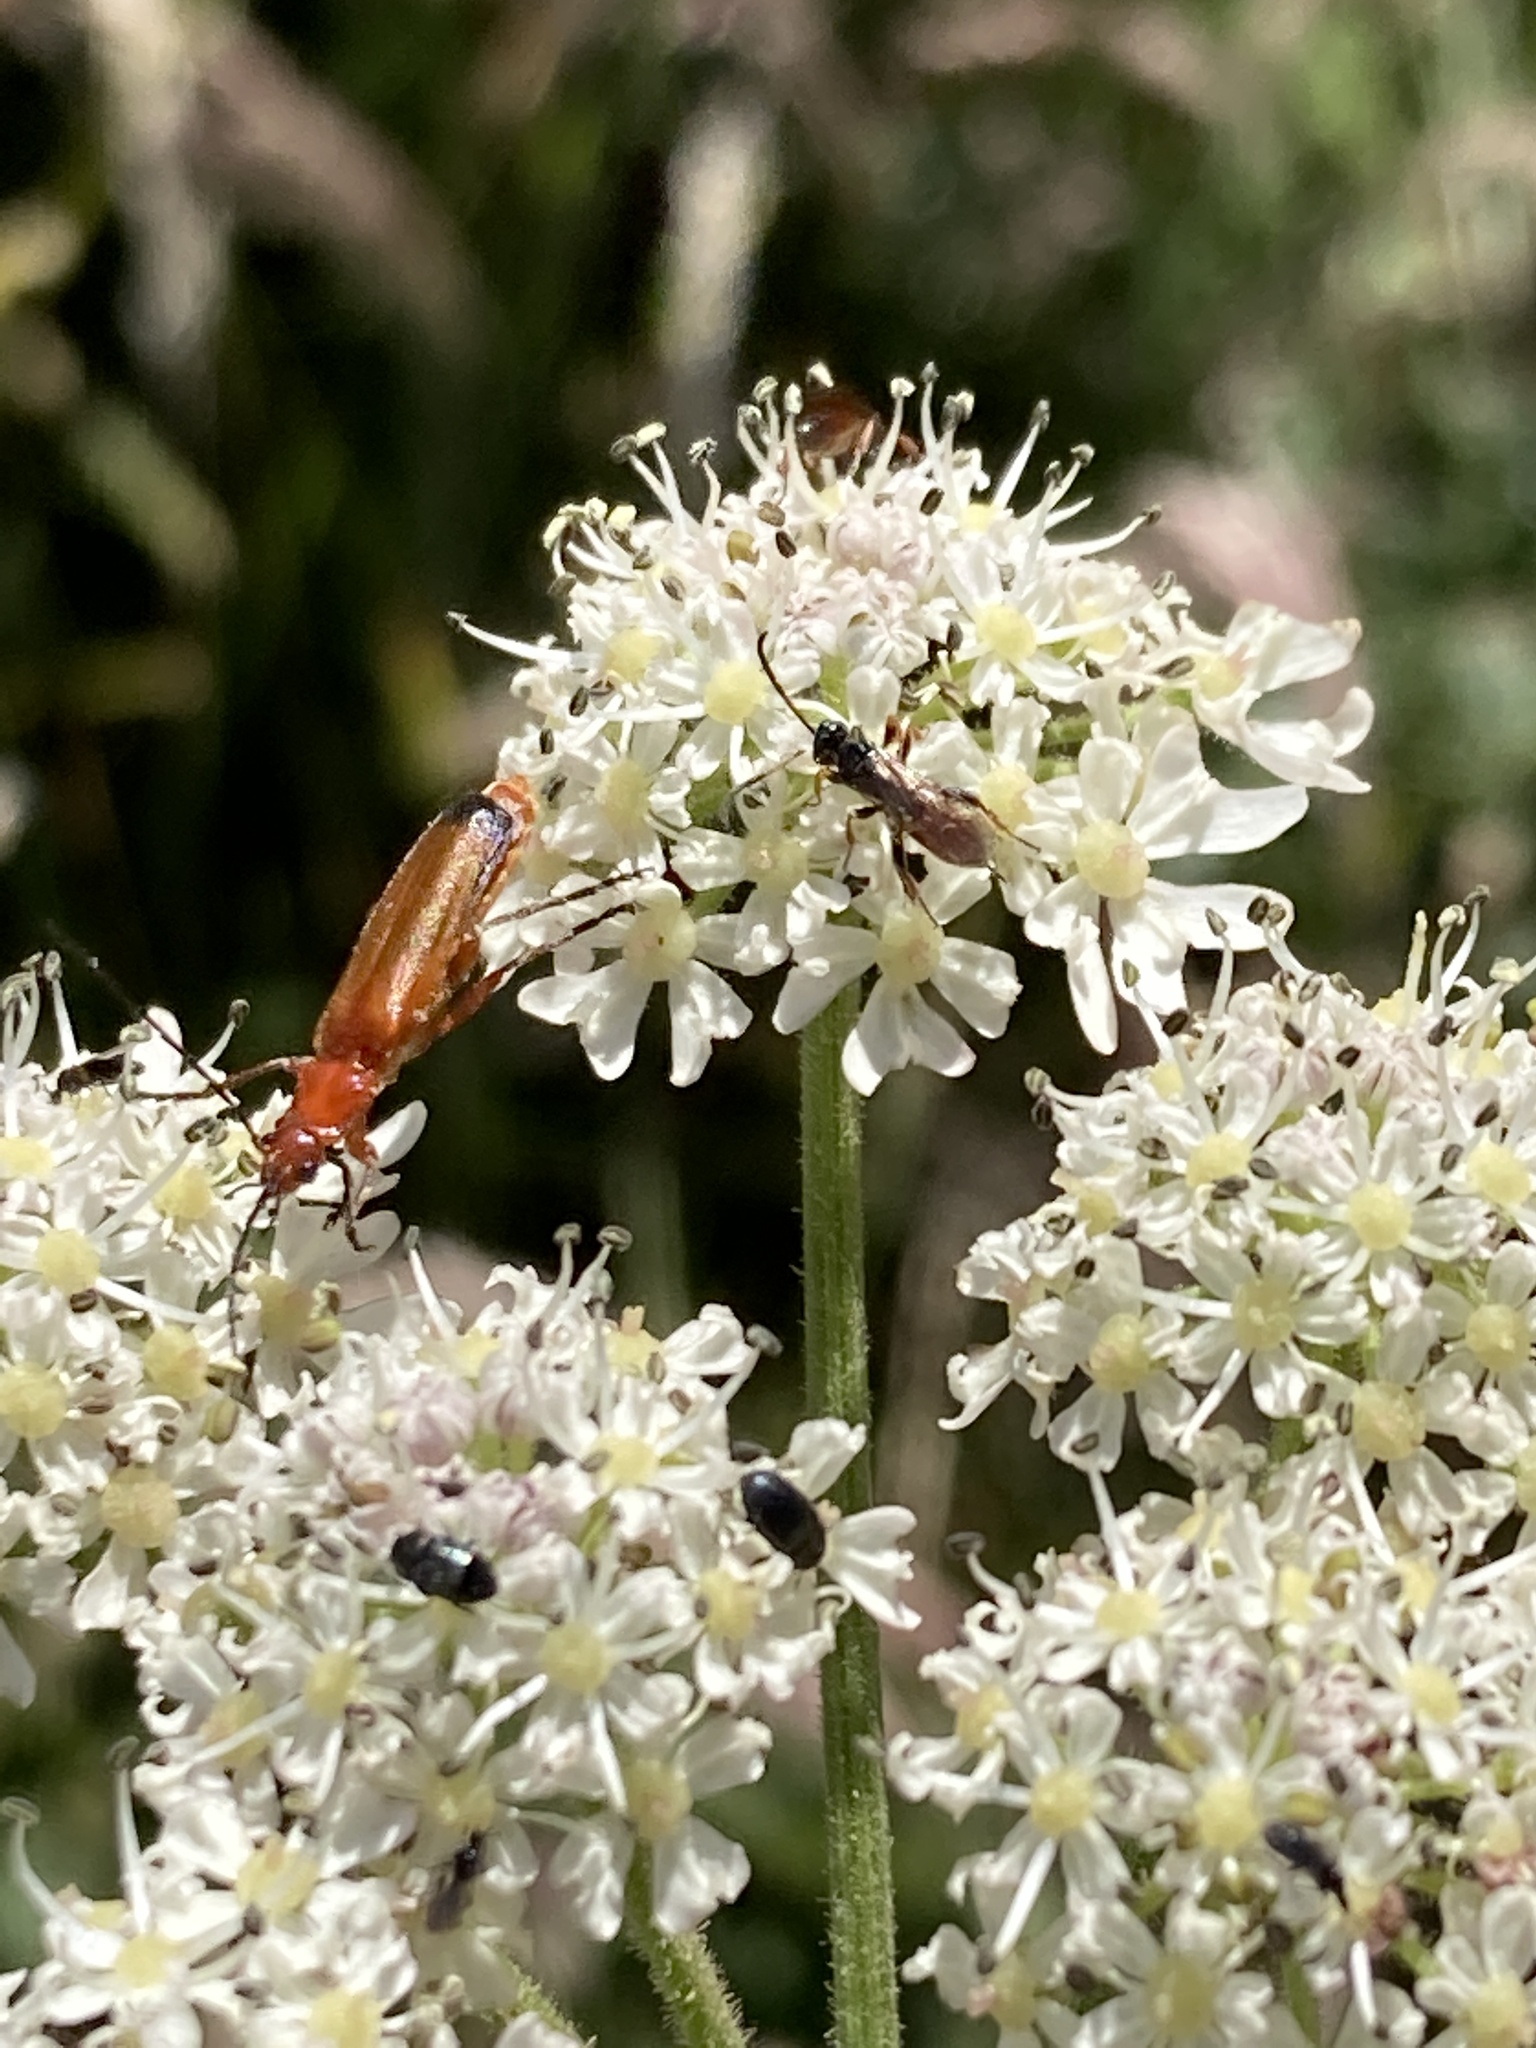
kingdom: Animalia
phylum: Arthropoda
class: Insecta
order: Coleoptera
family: Cantharidae
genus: Rhagonycha
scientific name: Rhagonycha fulva
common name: Common red soldier beetle
